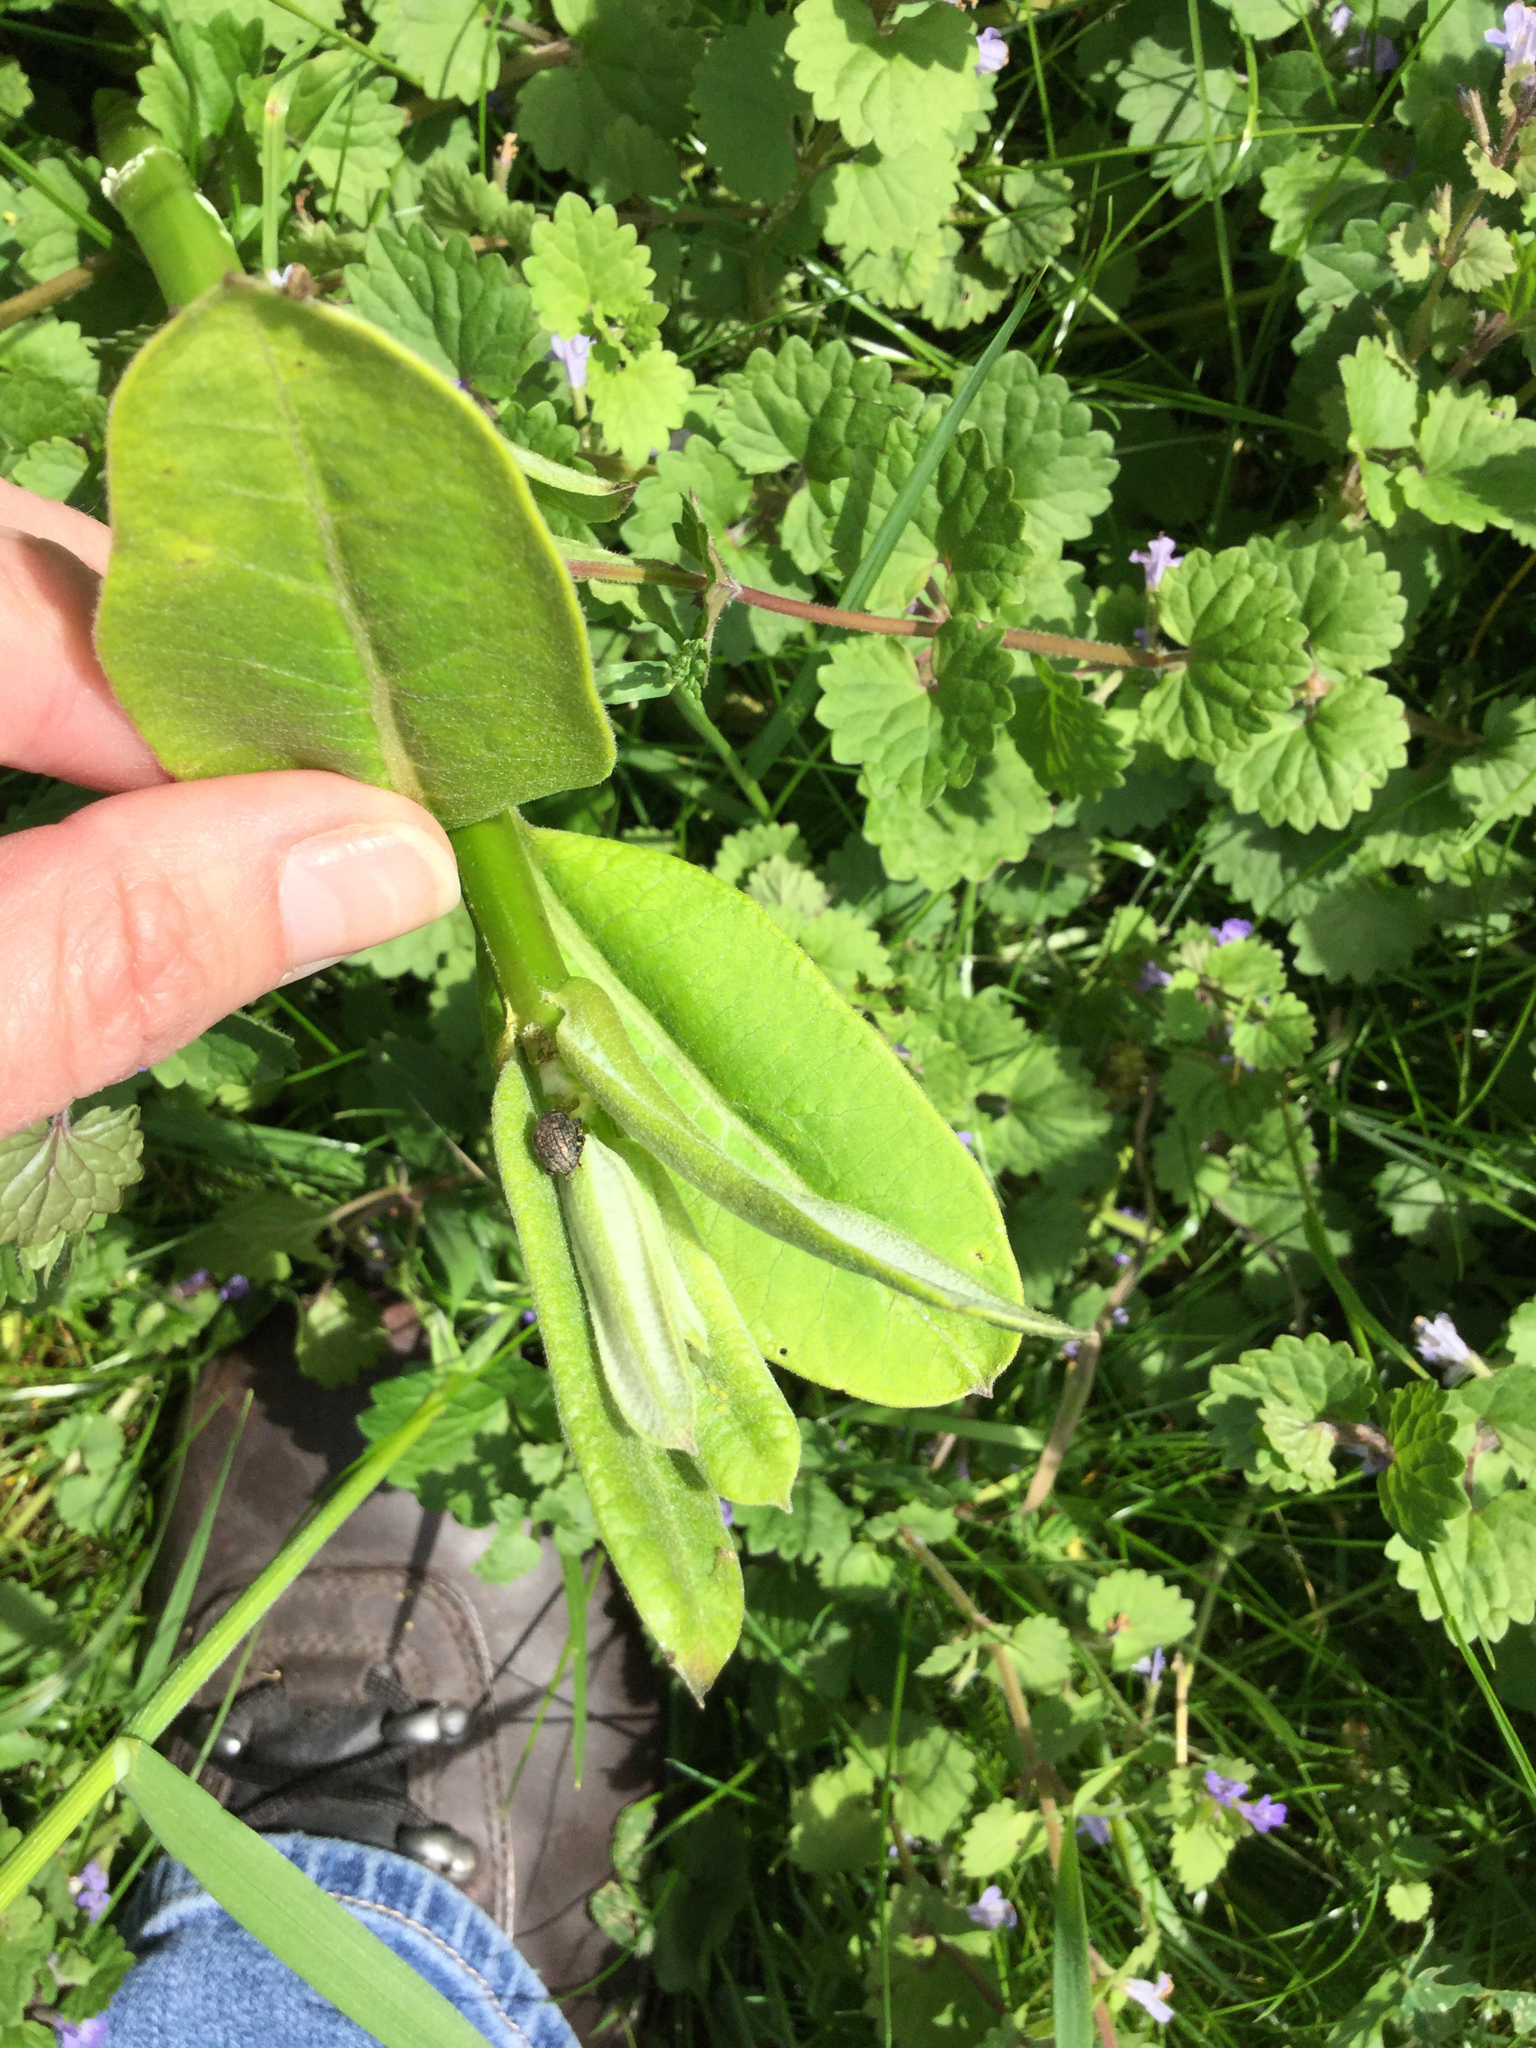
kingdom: Animalia
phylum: Arthropoda
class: Insecta
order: Coleoptera
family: Curculionidae
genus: Rhyssomatus
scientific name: Rhyssomatus lineaticollis
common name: Milkweed stem weevil
